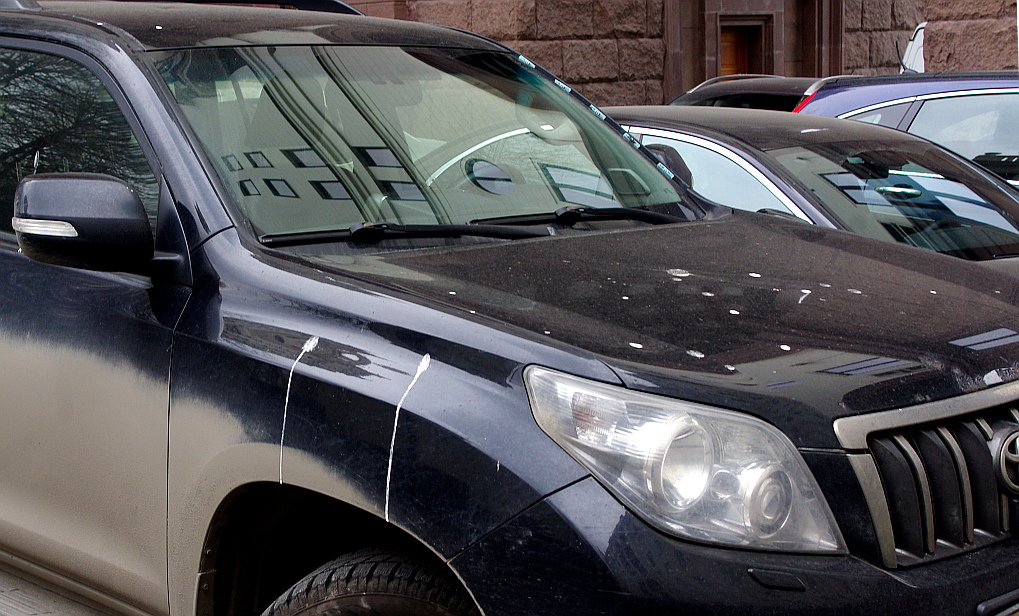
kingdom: Animalia
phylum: Chordata
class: Aves
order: Columbiformes
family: Columbidae
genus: Columba
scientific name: Columba livia
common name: Rock pigeon
